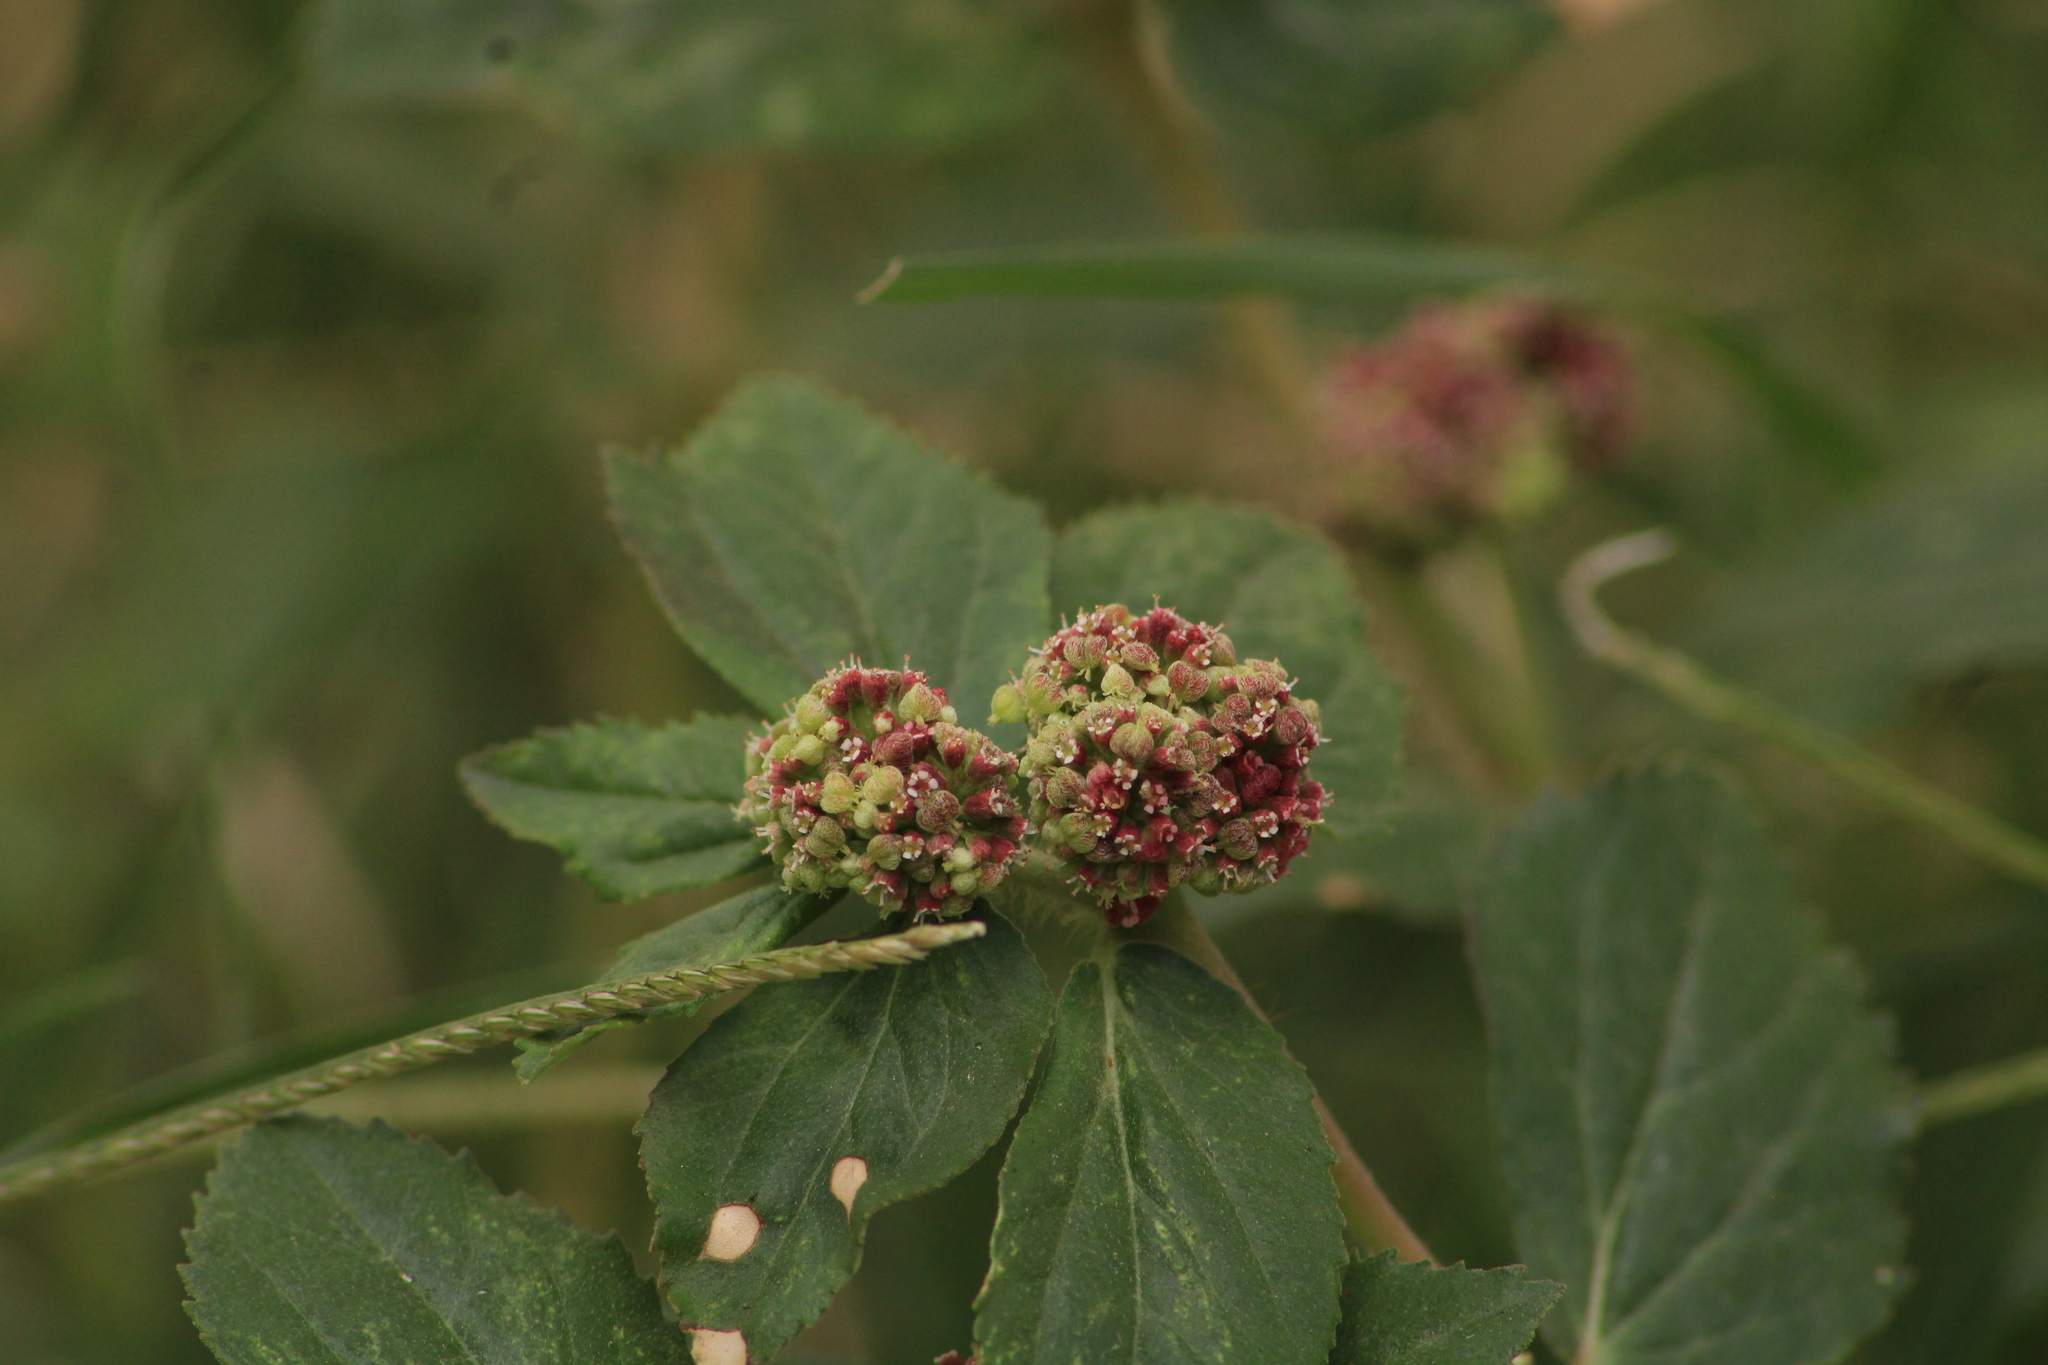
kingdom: Plantae
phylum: Tracheophyta
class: Magnoliopsida
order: Malpighiales
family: Euphorbiaceae
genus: Euphorbia
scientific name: Euphorbia ophthalmica
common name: Florida hammock sandmat
